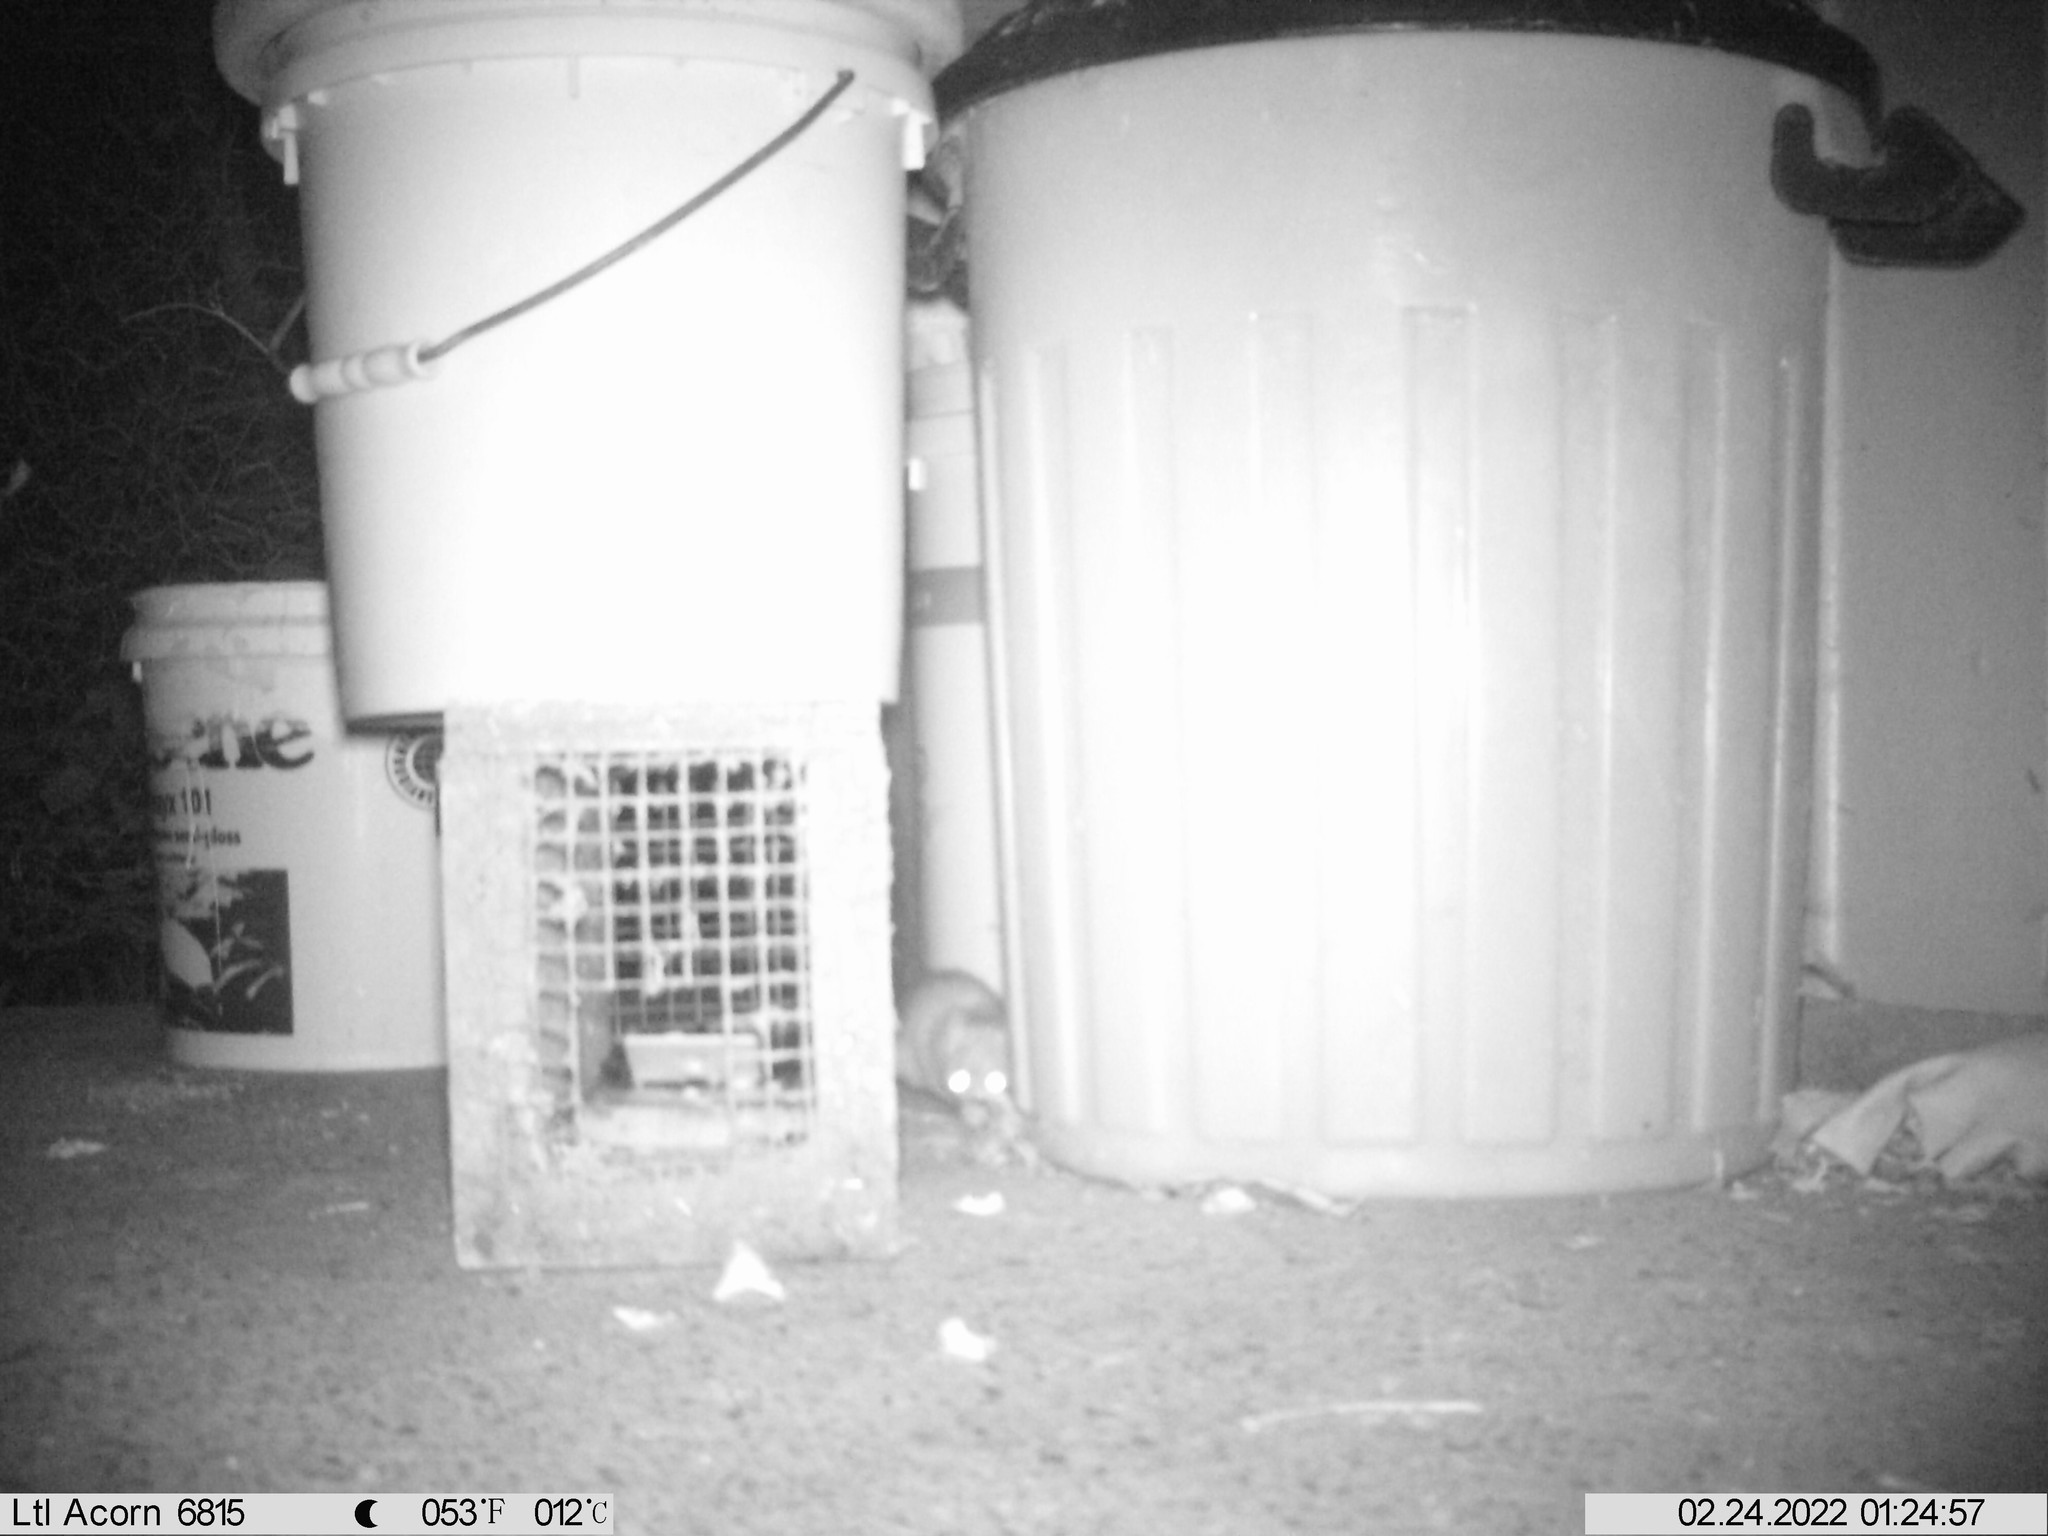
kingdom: Animalia
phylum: Chordata
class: Mammalia
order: Rodentia
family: Muridae
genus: Rattus
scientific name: Rattus norvegicus
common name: Brown rat
